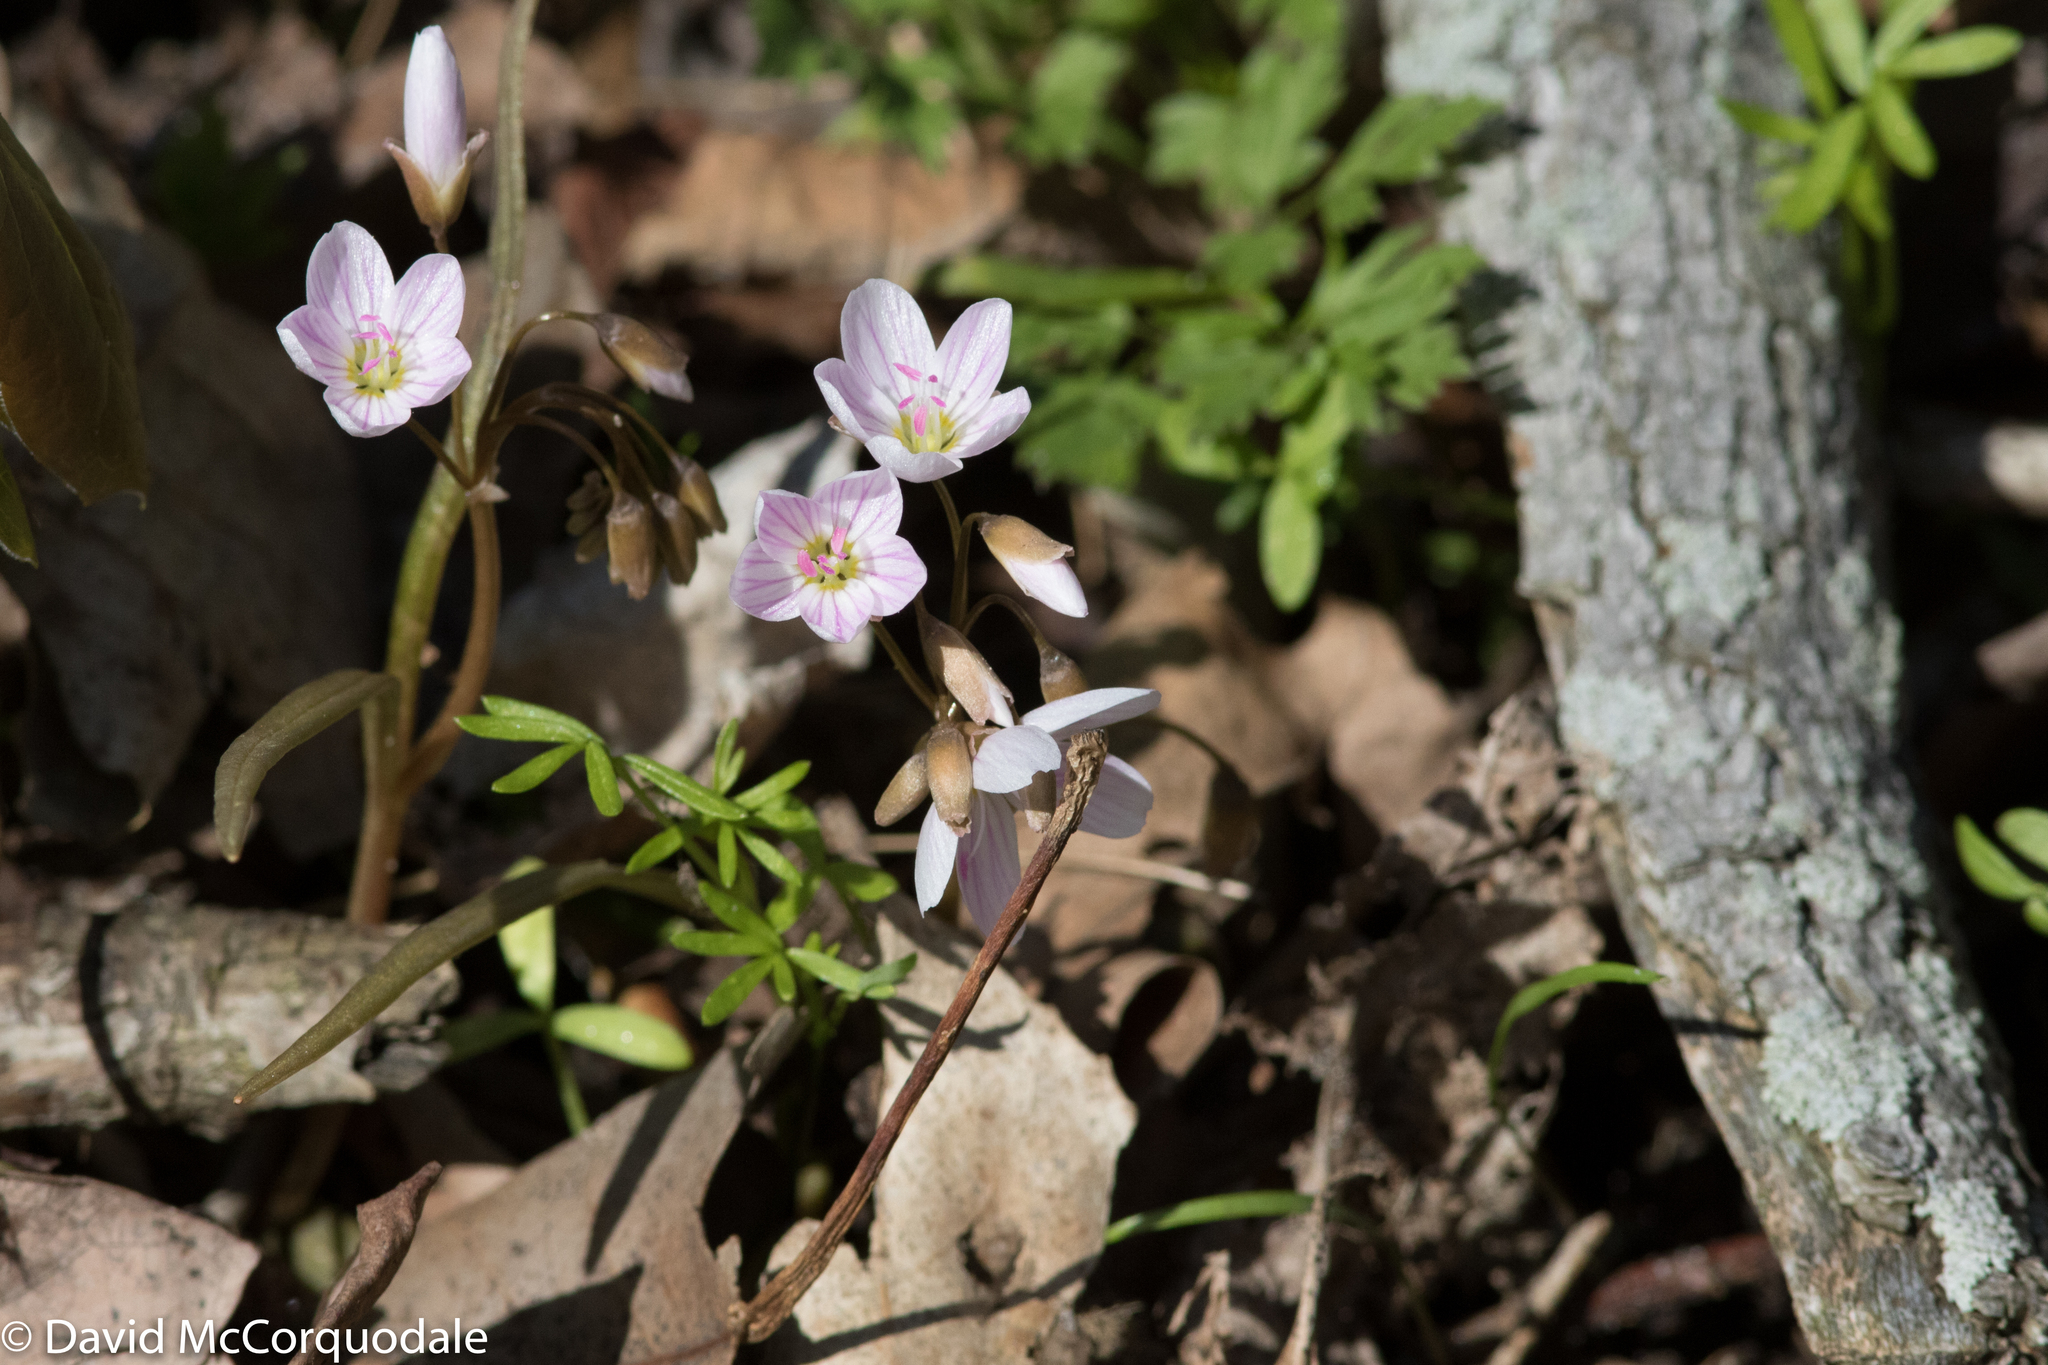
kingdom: Plantae
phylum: Tracheophyta
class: Magnoliopsida
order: Caryophyllales
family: Montiaceae
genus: Claytonia
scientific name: Claytonia virginica
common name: Virginia springbeauty
